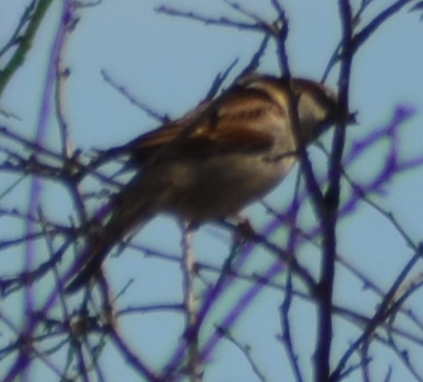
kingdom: Animalia
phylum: Chordata
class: Aves
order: Passeriformes
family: Passeridae
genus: Passer
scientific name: Passer domesticus
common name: House sparrow
